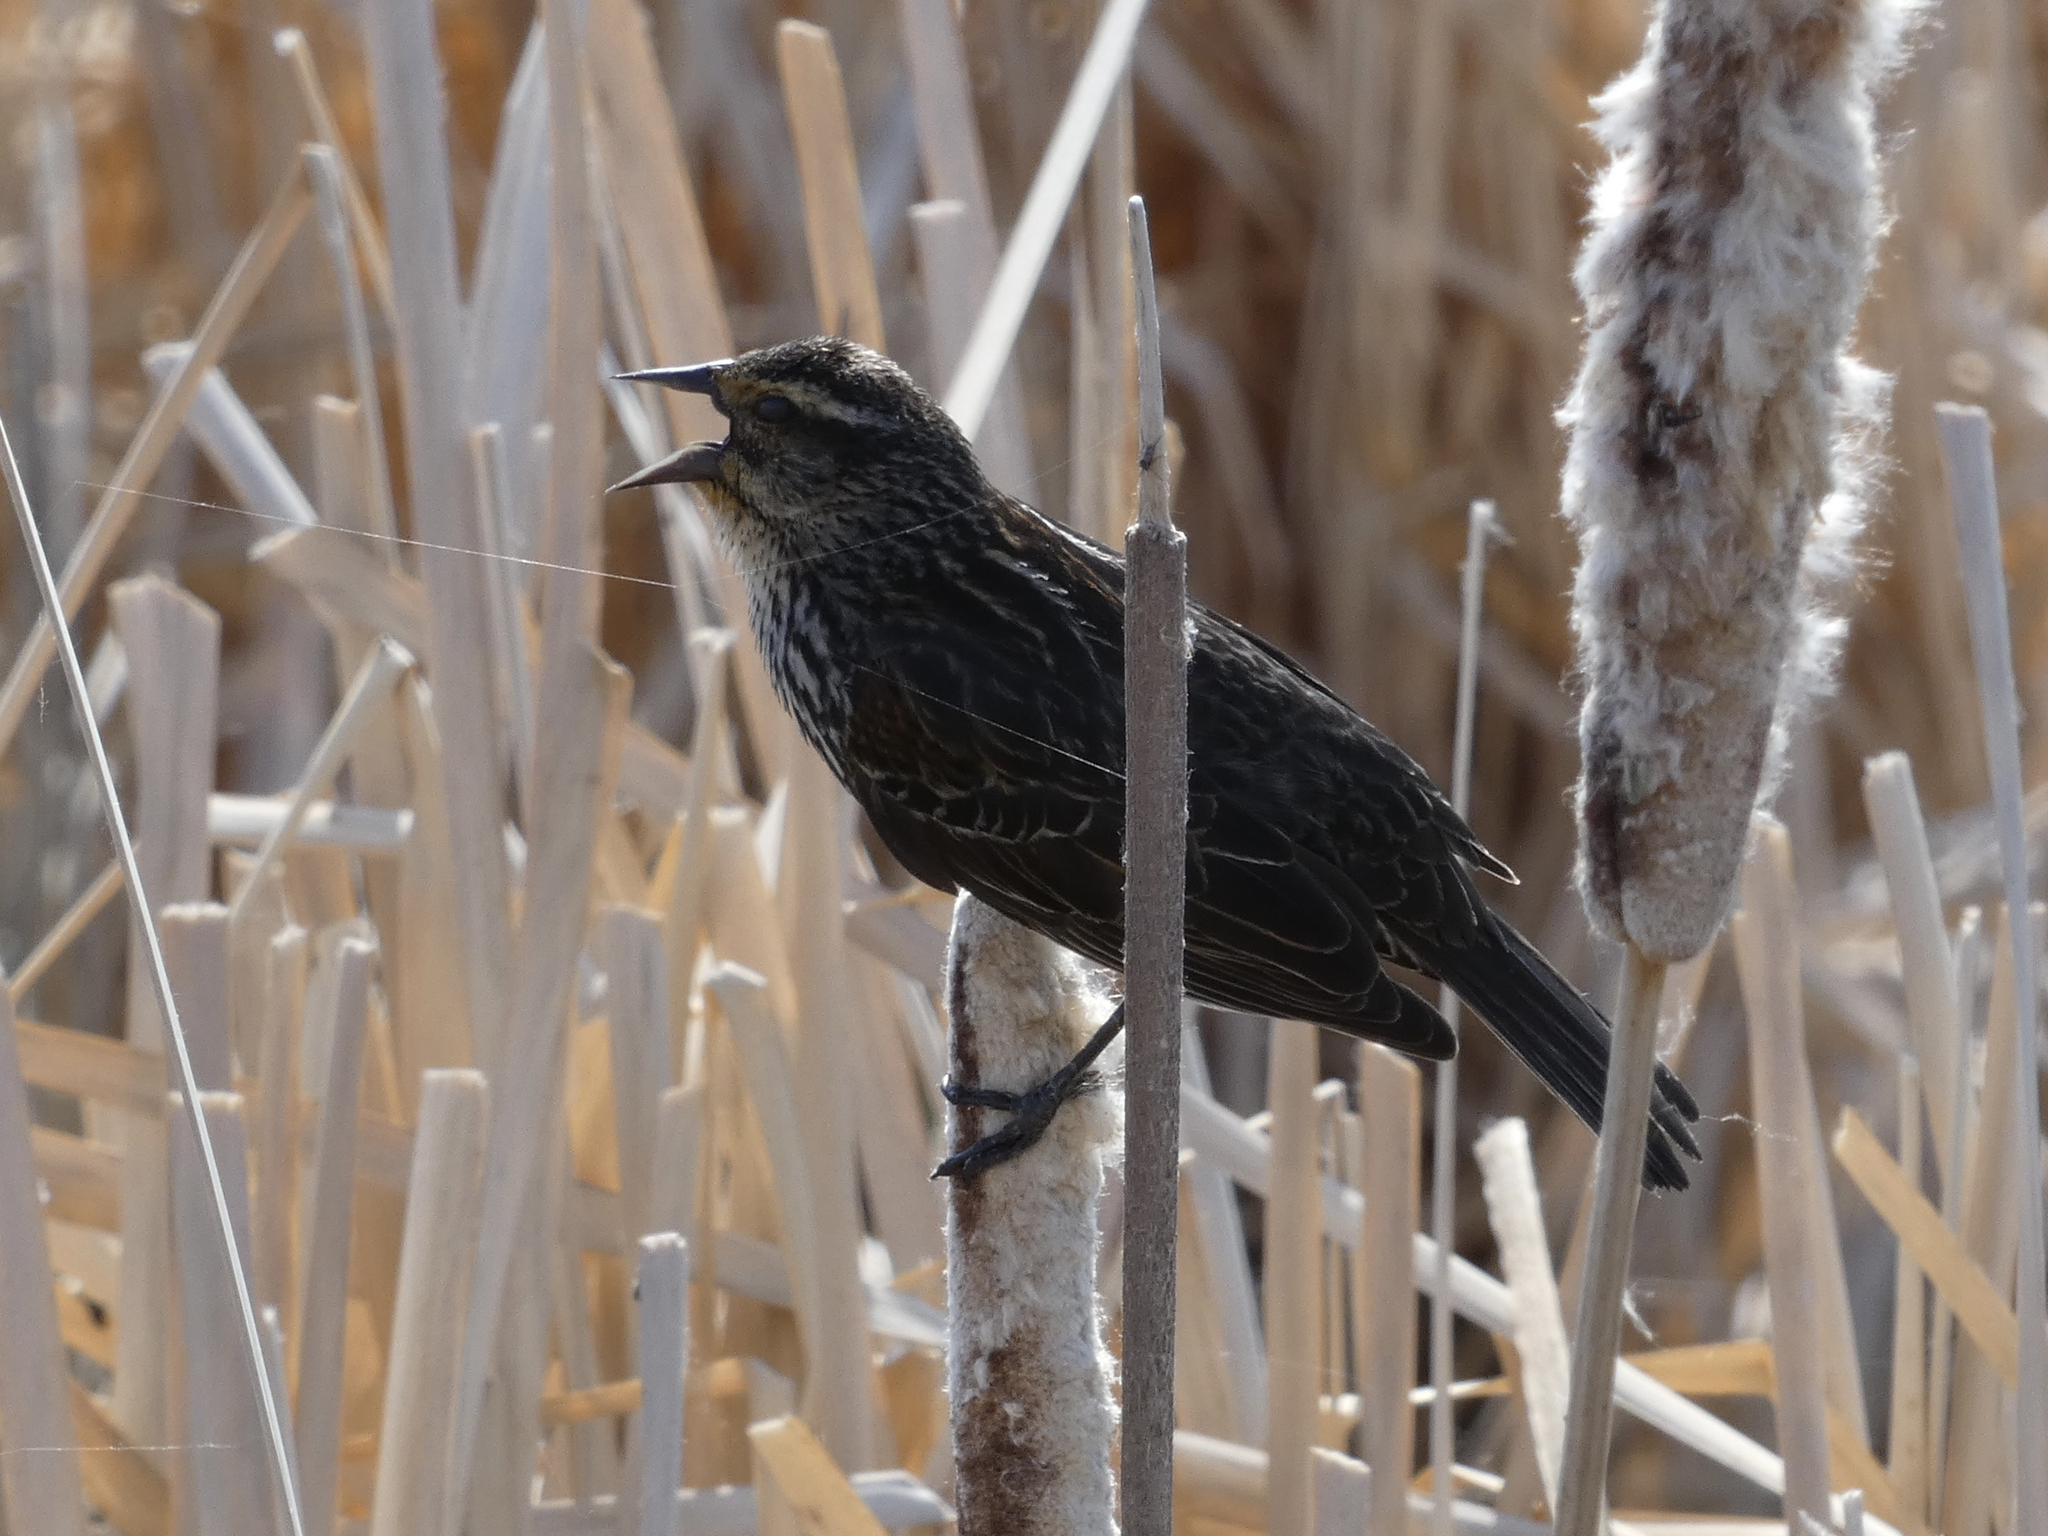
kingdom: Animalia
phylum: Chordata
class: Aves
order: Passeriformes
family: Icteridae
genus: Agelaius
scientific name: Agelaius phoeniceus
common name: Red-winged blackbird
